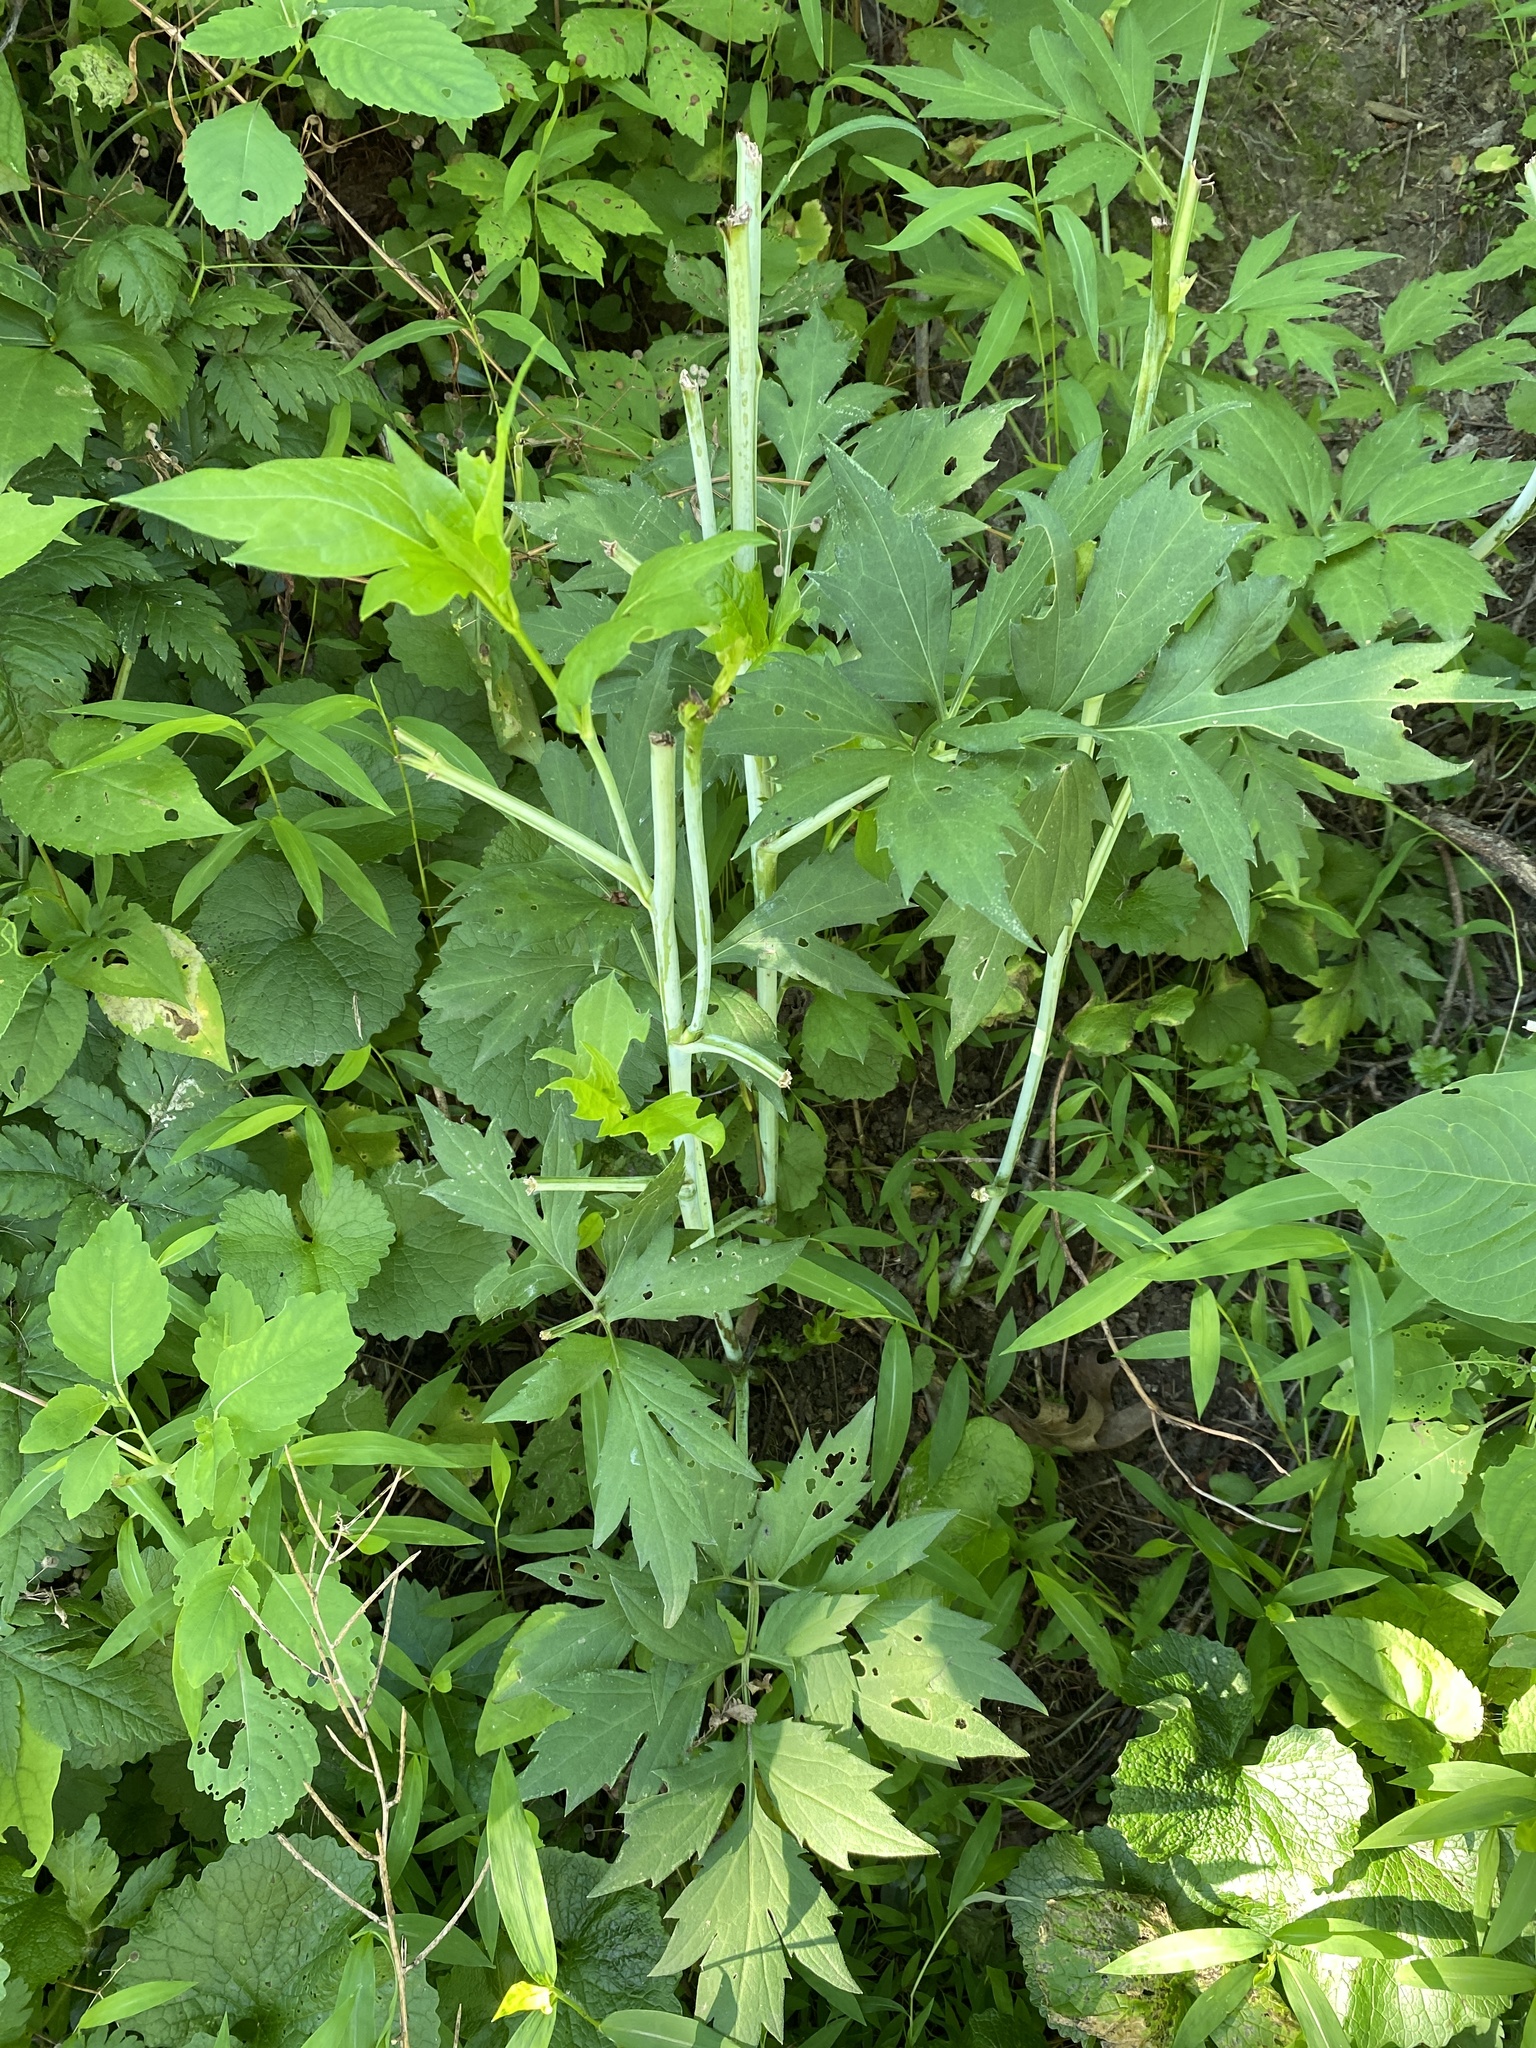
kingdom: Plantae
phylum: Tracheophyta
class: Magnoliopsida
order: Asterales
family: Asteraceae
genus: Rudbeckia
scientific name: Rudbeckia laciniata
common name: Coneflower
